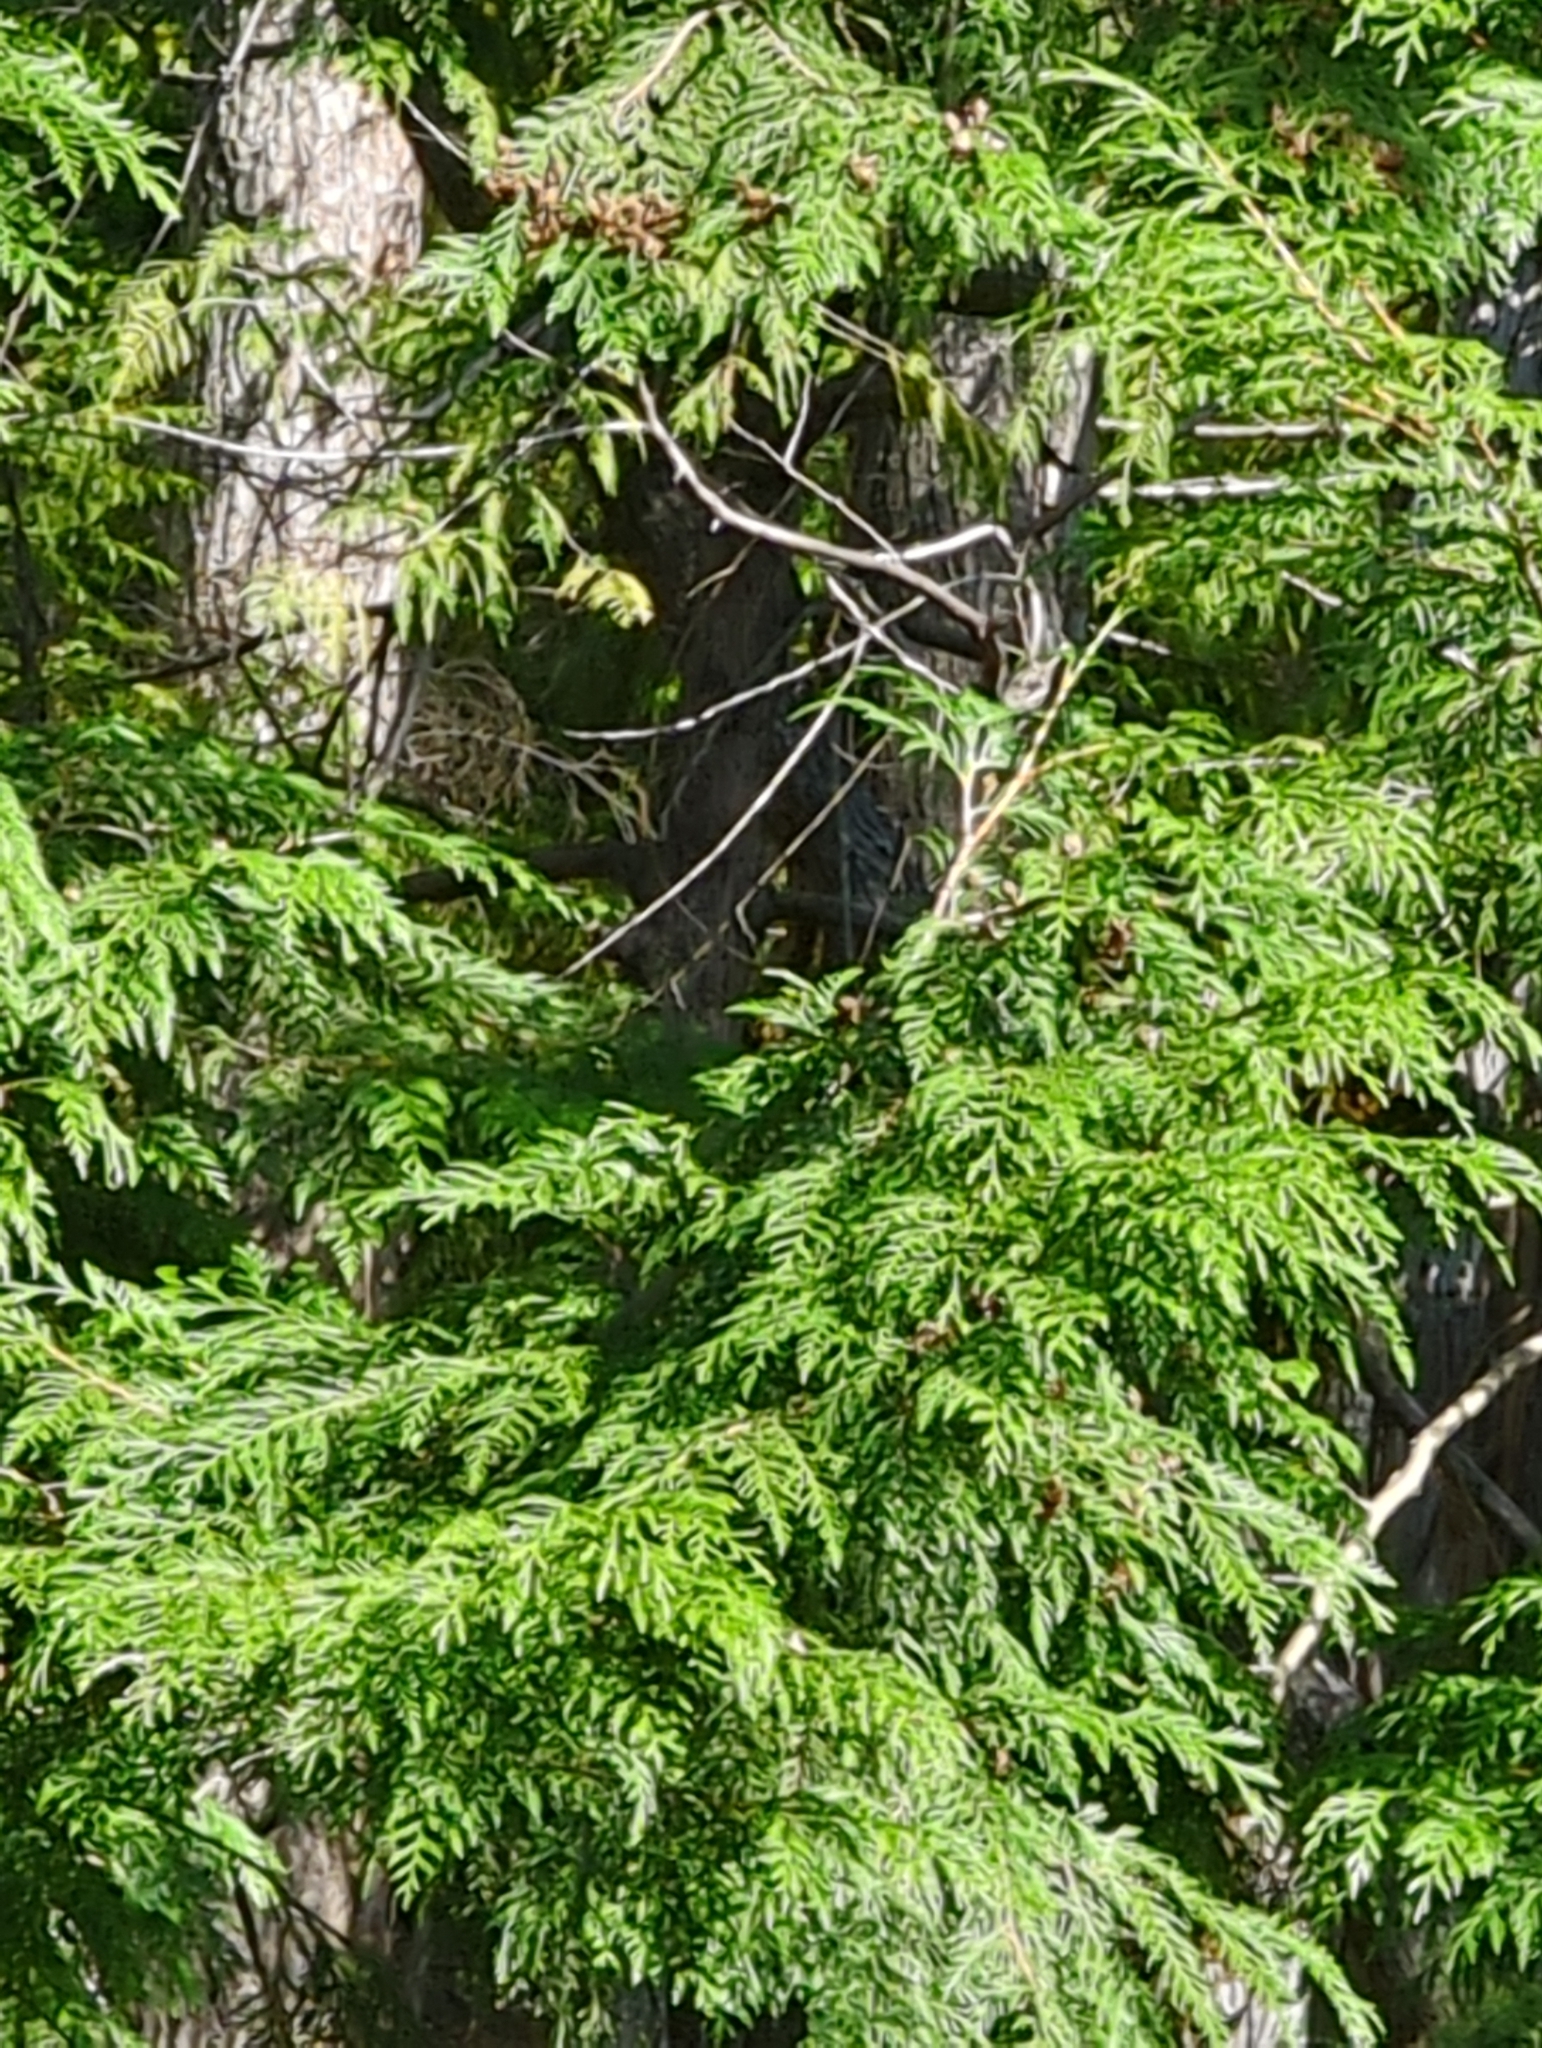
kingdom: Plantae
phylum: Tracheophyta
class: Pinopsida
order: Pinales
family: Cupressaceae
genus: Thuja
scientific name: Thuja plicata
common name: Western red-cedar
